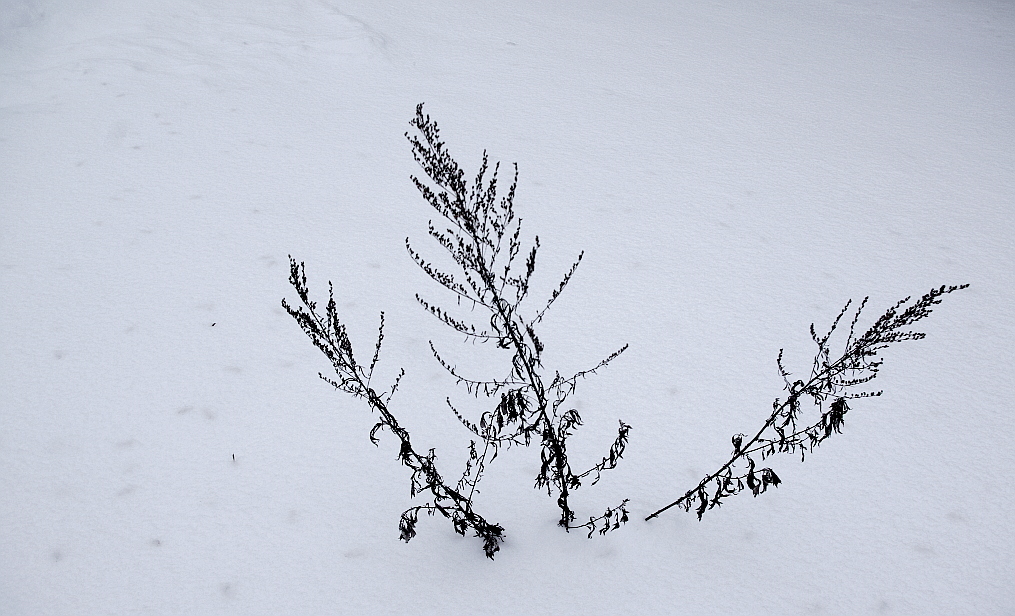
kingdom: Plantae
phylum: Tracheophyta
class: Magnoliopsida
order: Asterales
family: Asteraceae
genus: Artemisia
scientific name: Artemisia vulgaris
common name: Mugwort
